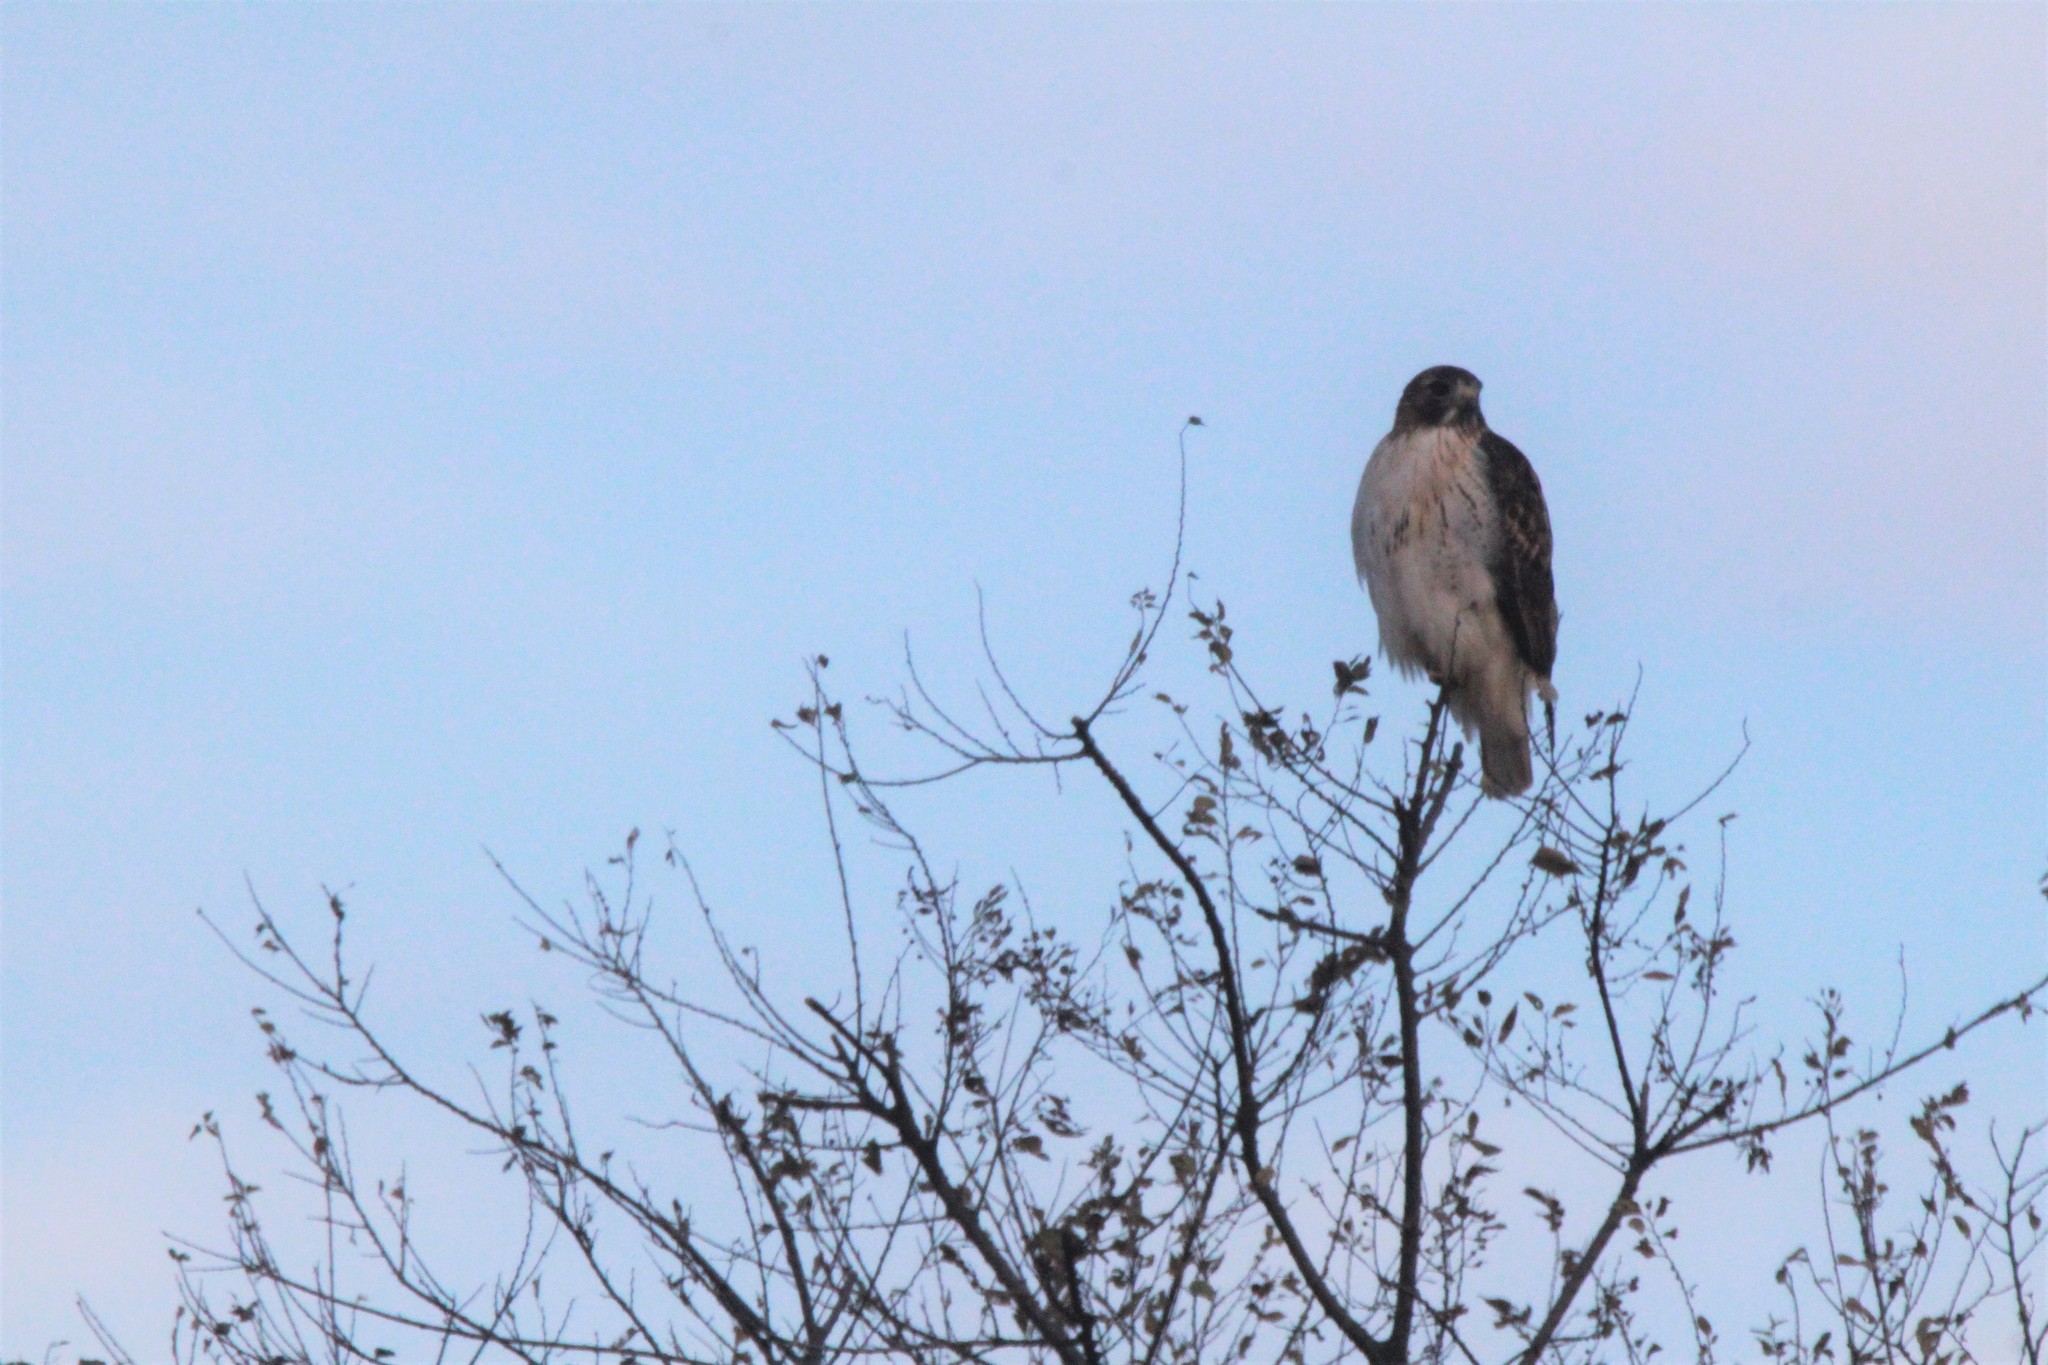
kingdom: Animalia
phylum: Chordata
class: Aves
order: Accipitriformes
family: Accipitridae
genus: Buteo
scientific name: Buteo jamaicensis
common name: Red-tailed hawk
